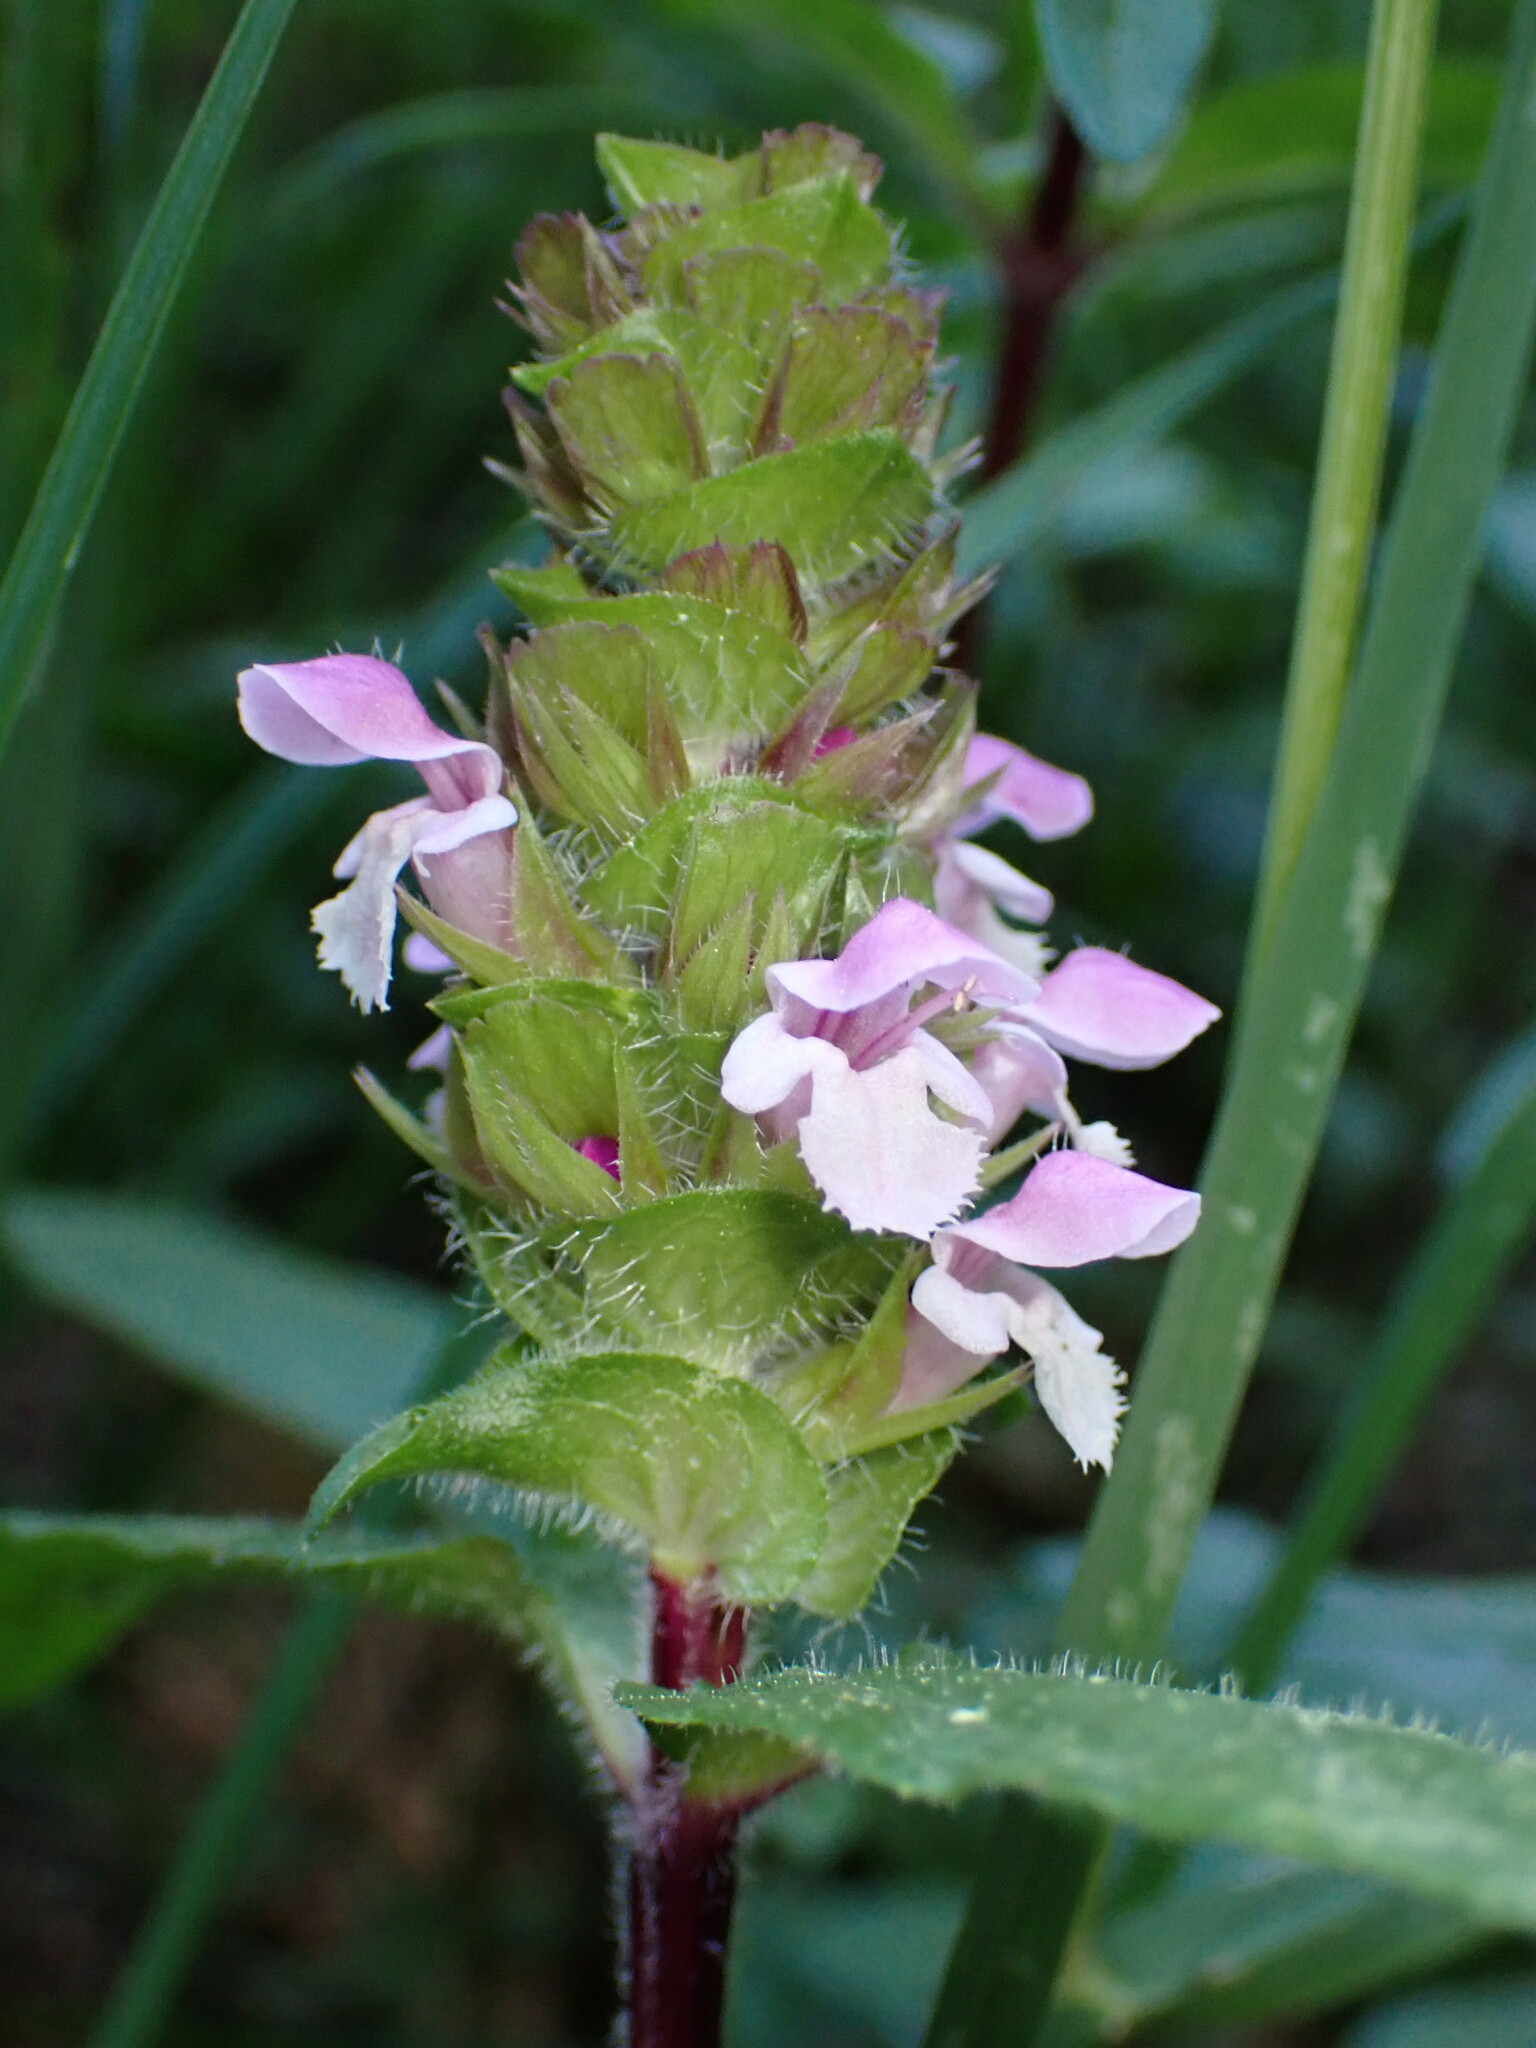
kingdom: Plantae
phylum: Tracheophyta
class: Magnoliopsida
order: Lamiales
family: Lamiaceae
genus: Prunella
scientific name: Prunella vulgaris
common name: Heal-all
